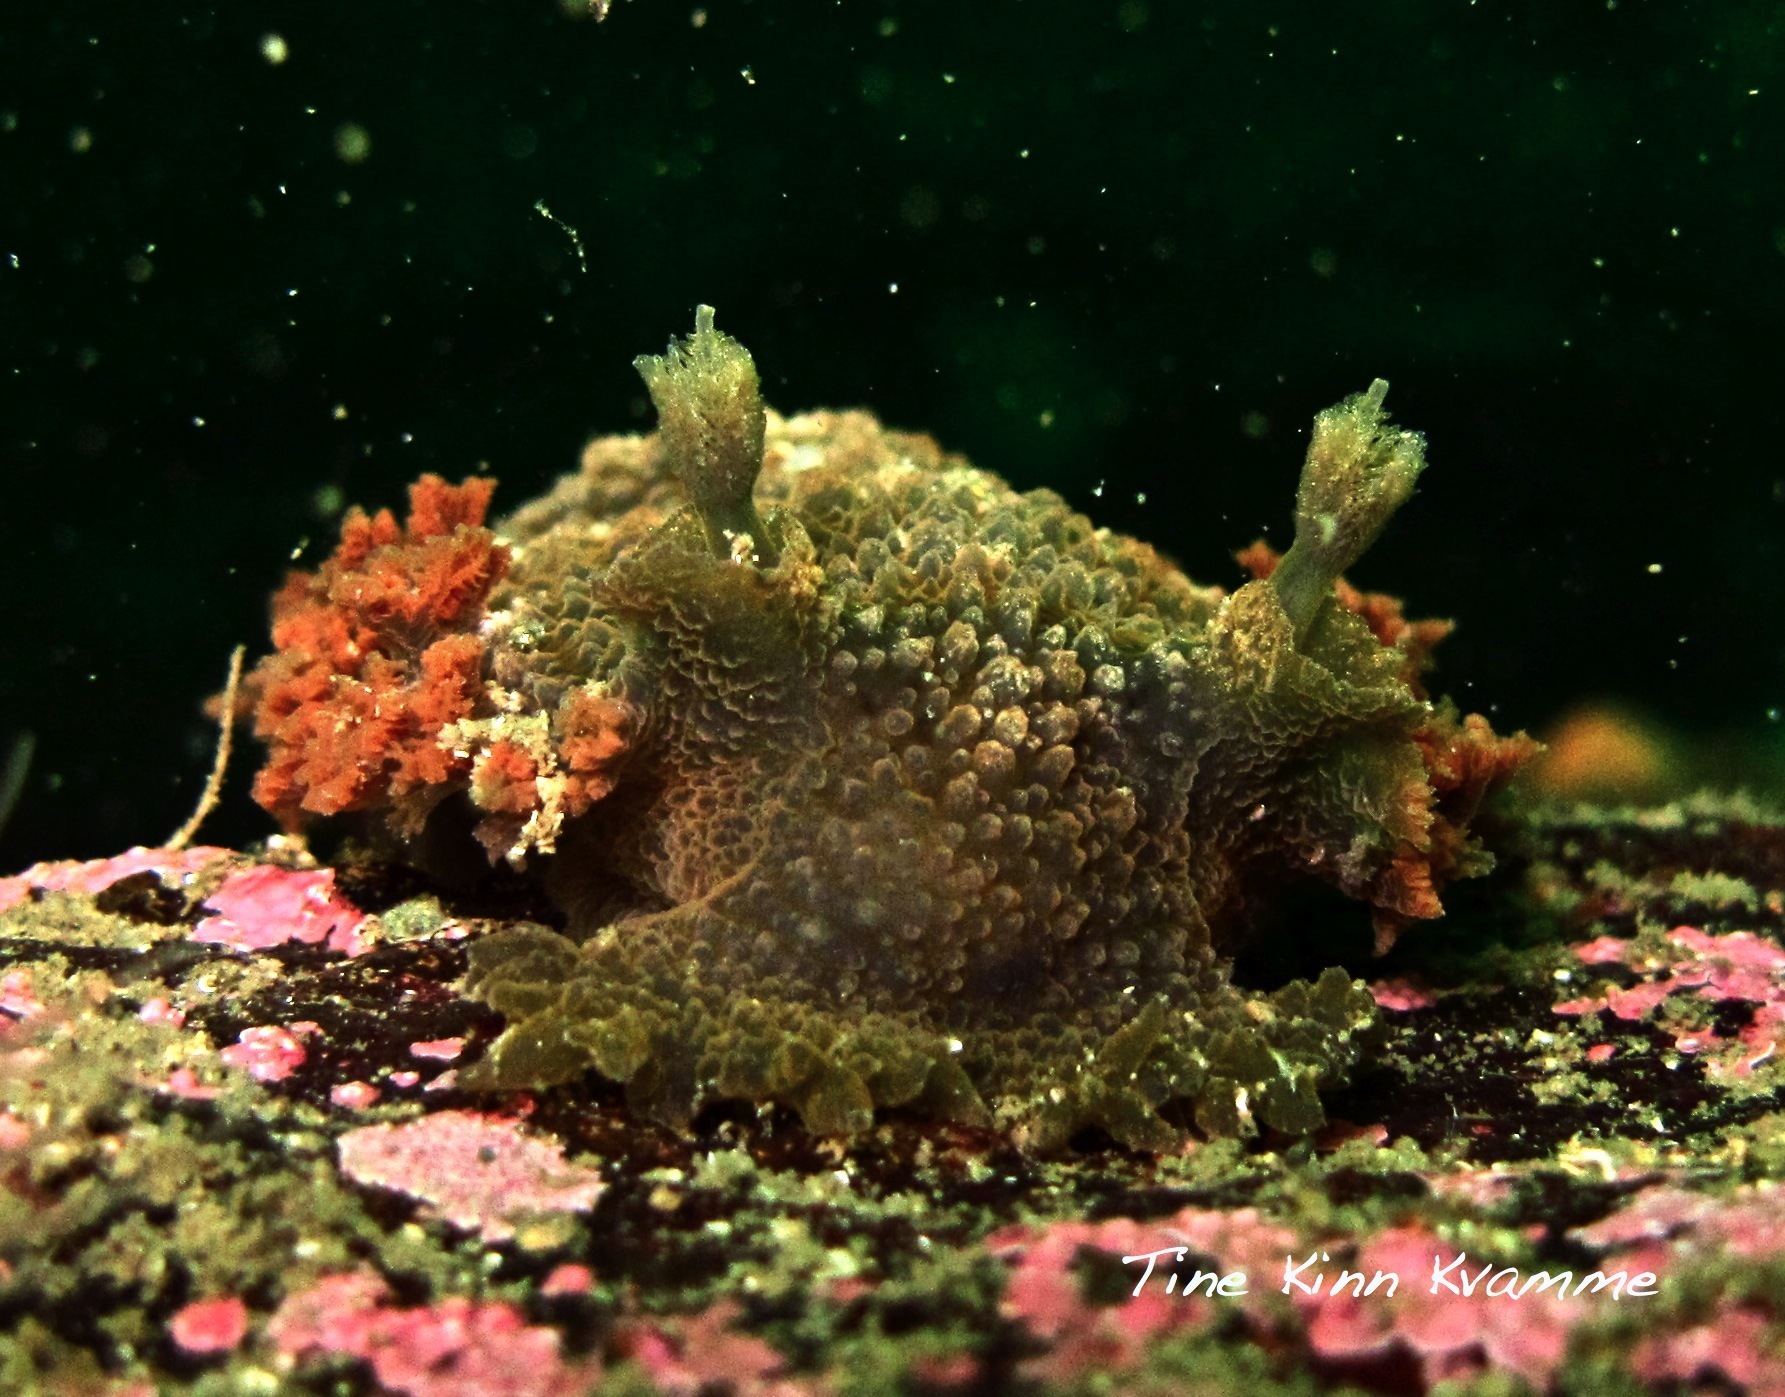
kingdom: Animalia
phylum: Mollusca
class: Gastropoda
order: Nudibranchia
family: Tritoniidae
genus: Tritonia
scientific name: Tritonia hombergii
